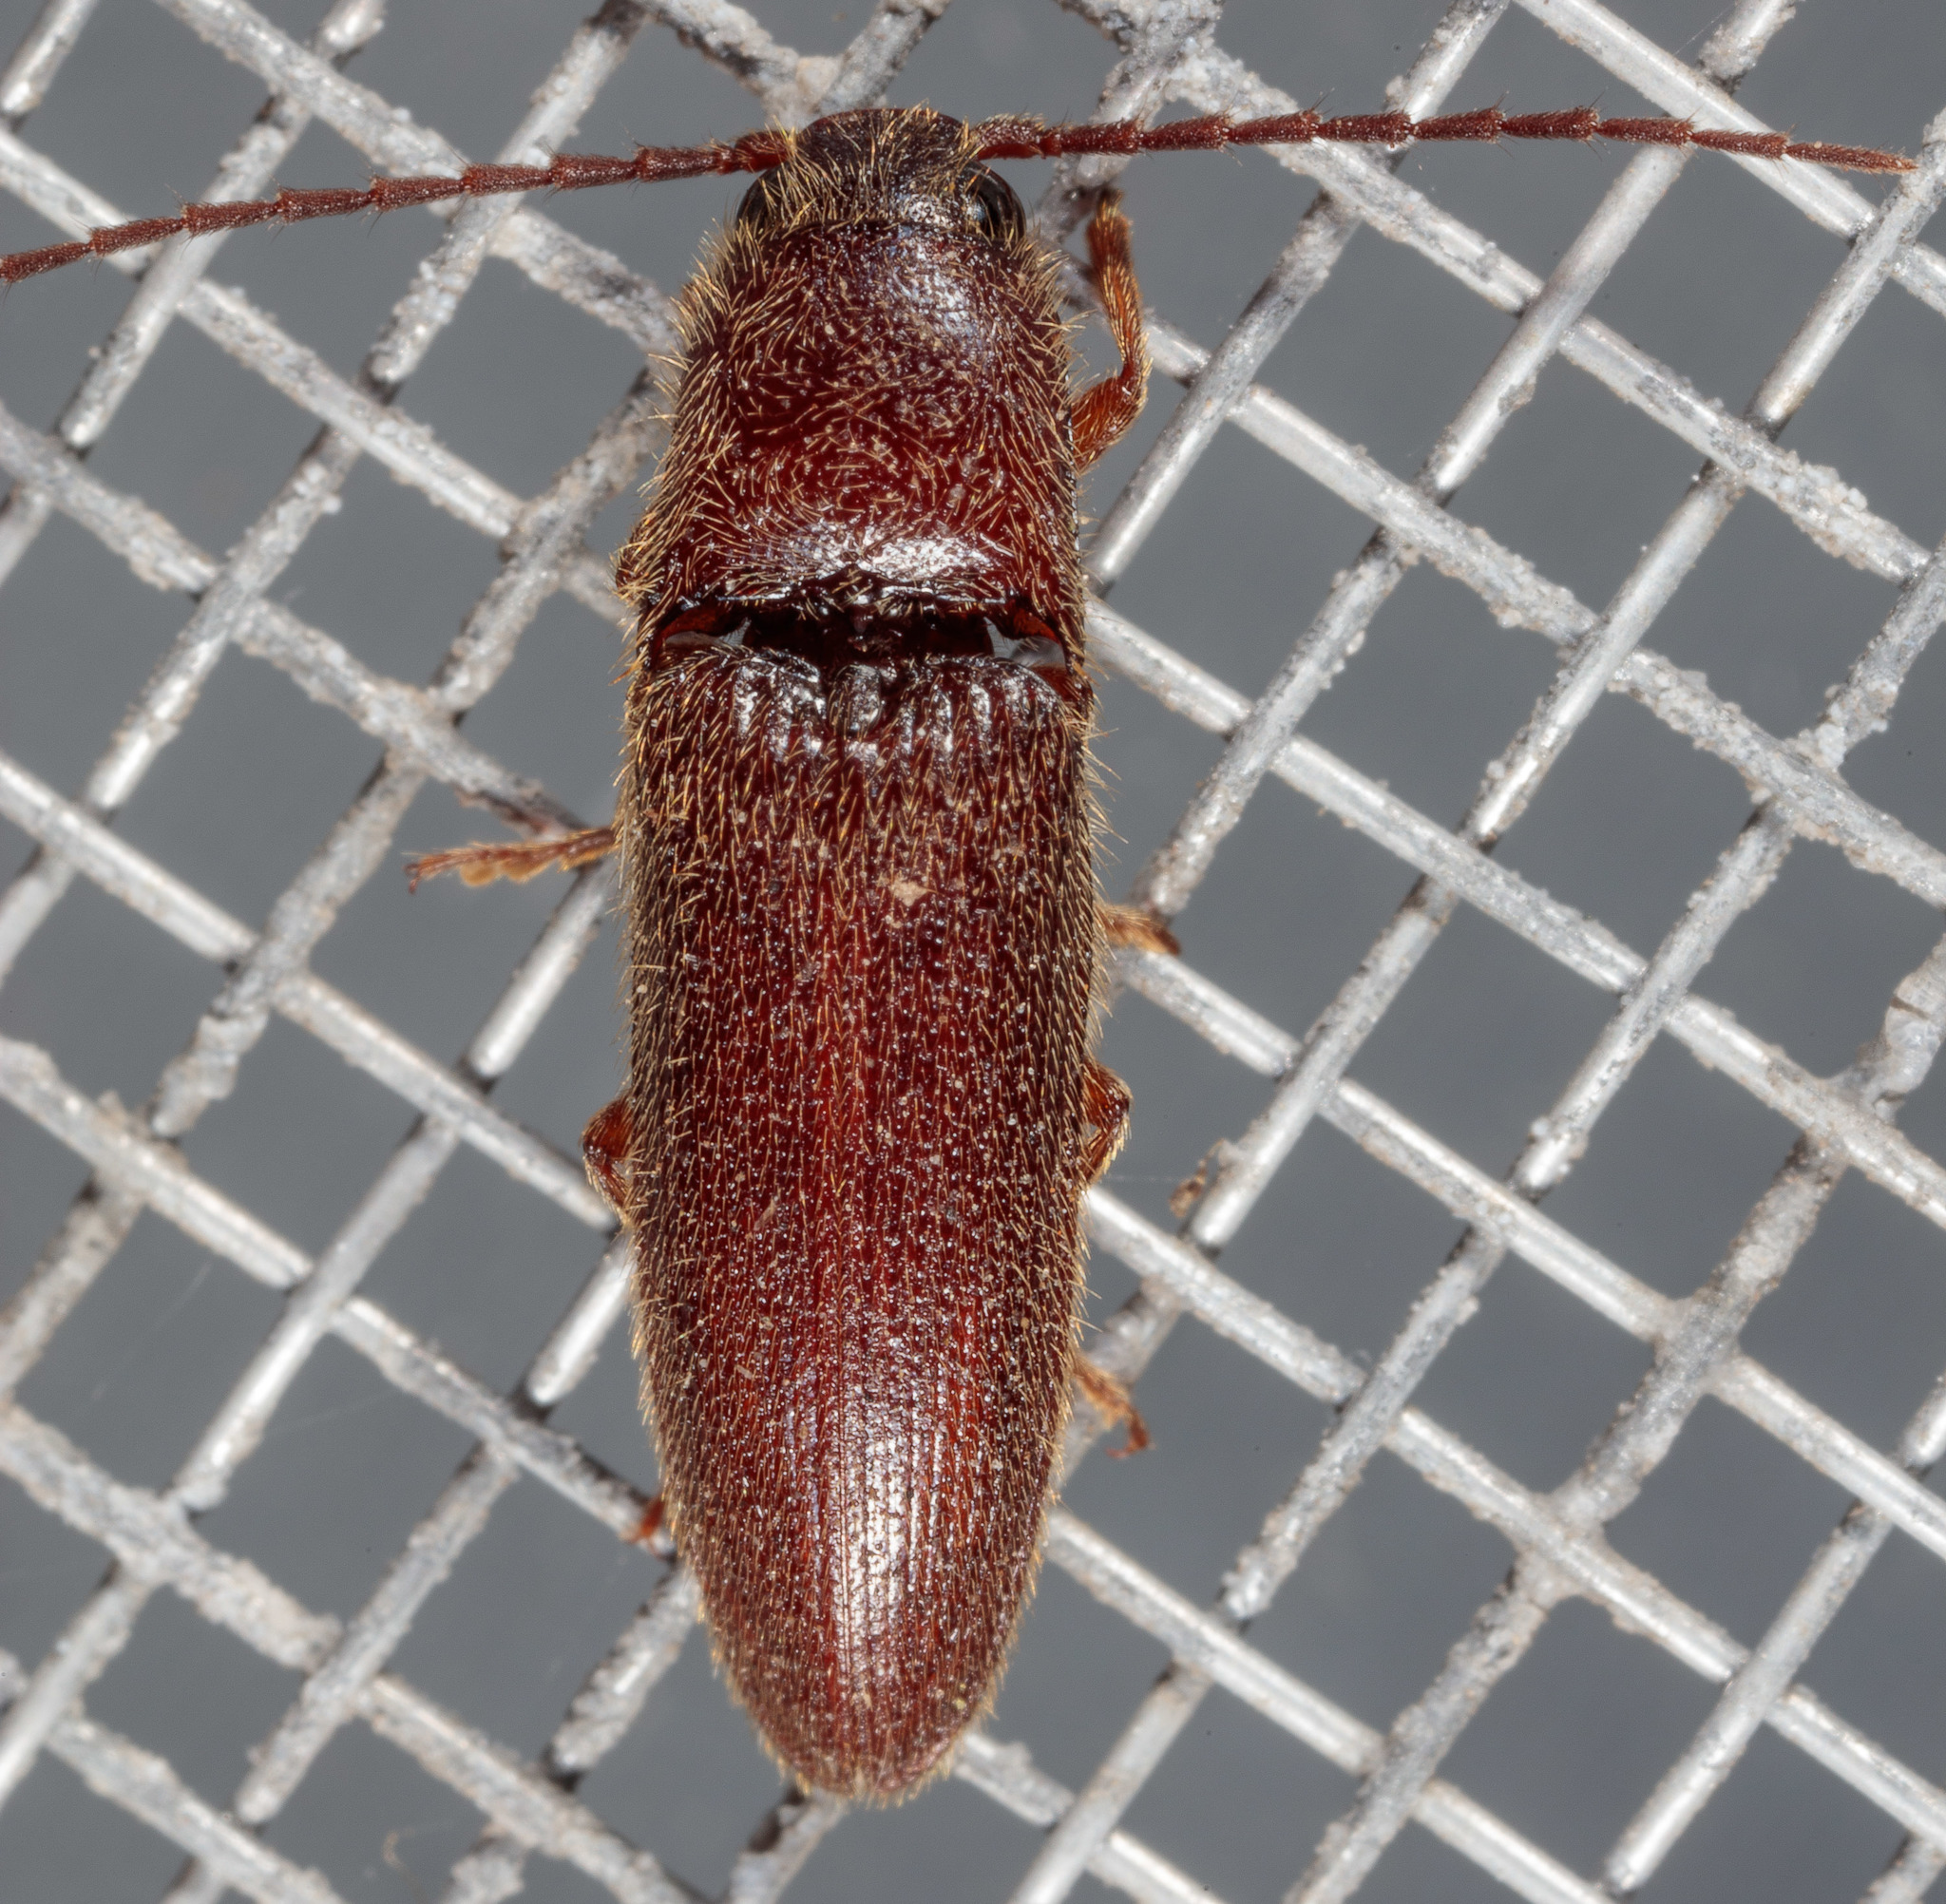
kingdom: Animalia
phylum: Arthropoda
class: Insecta
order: Coleoptera
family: Elateridae
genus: Dipropus
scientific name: Dipropus
